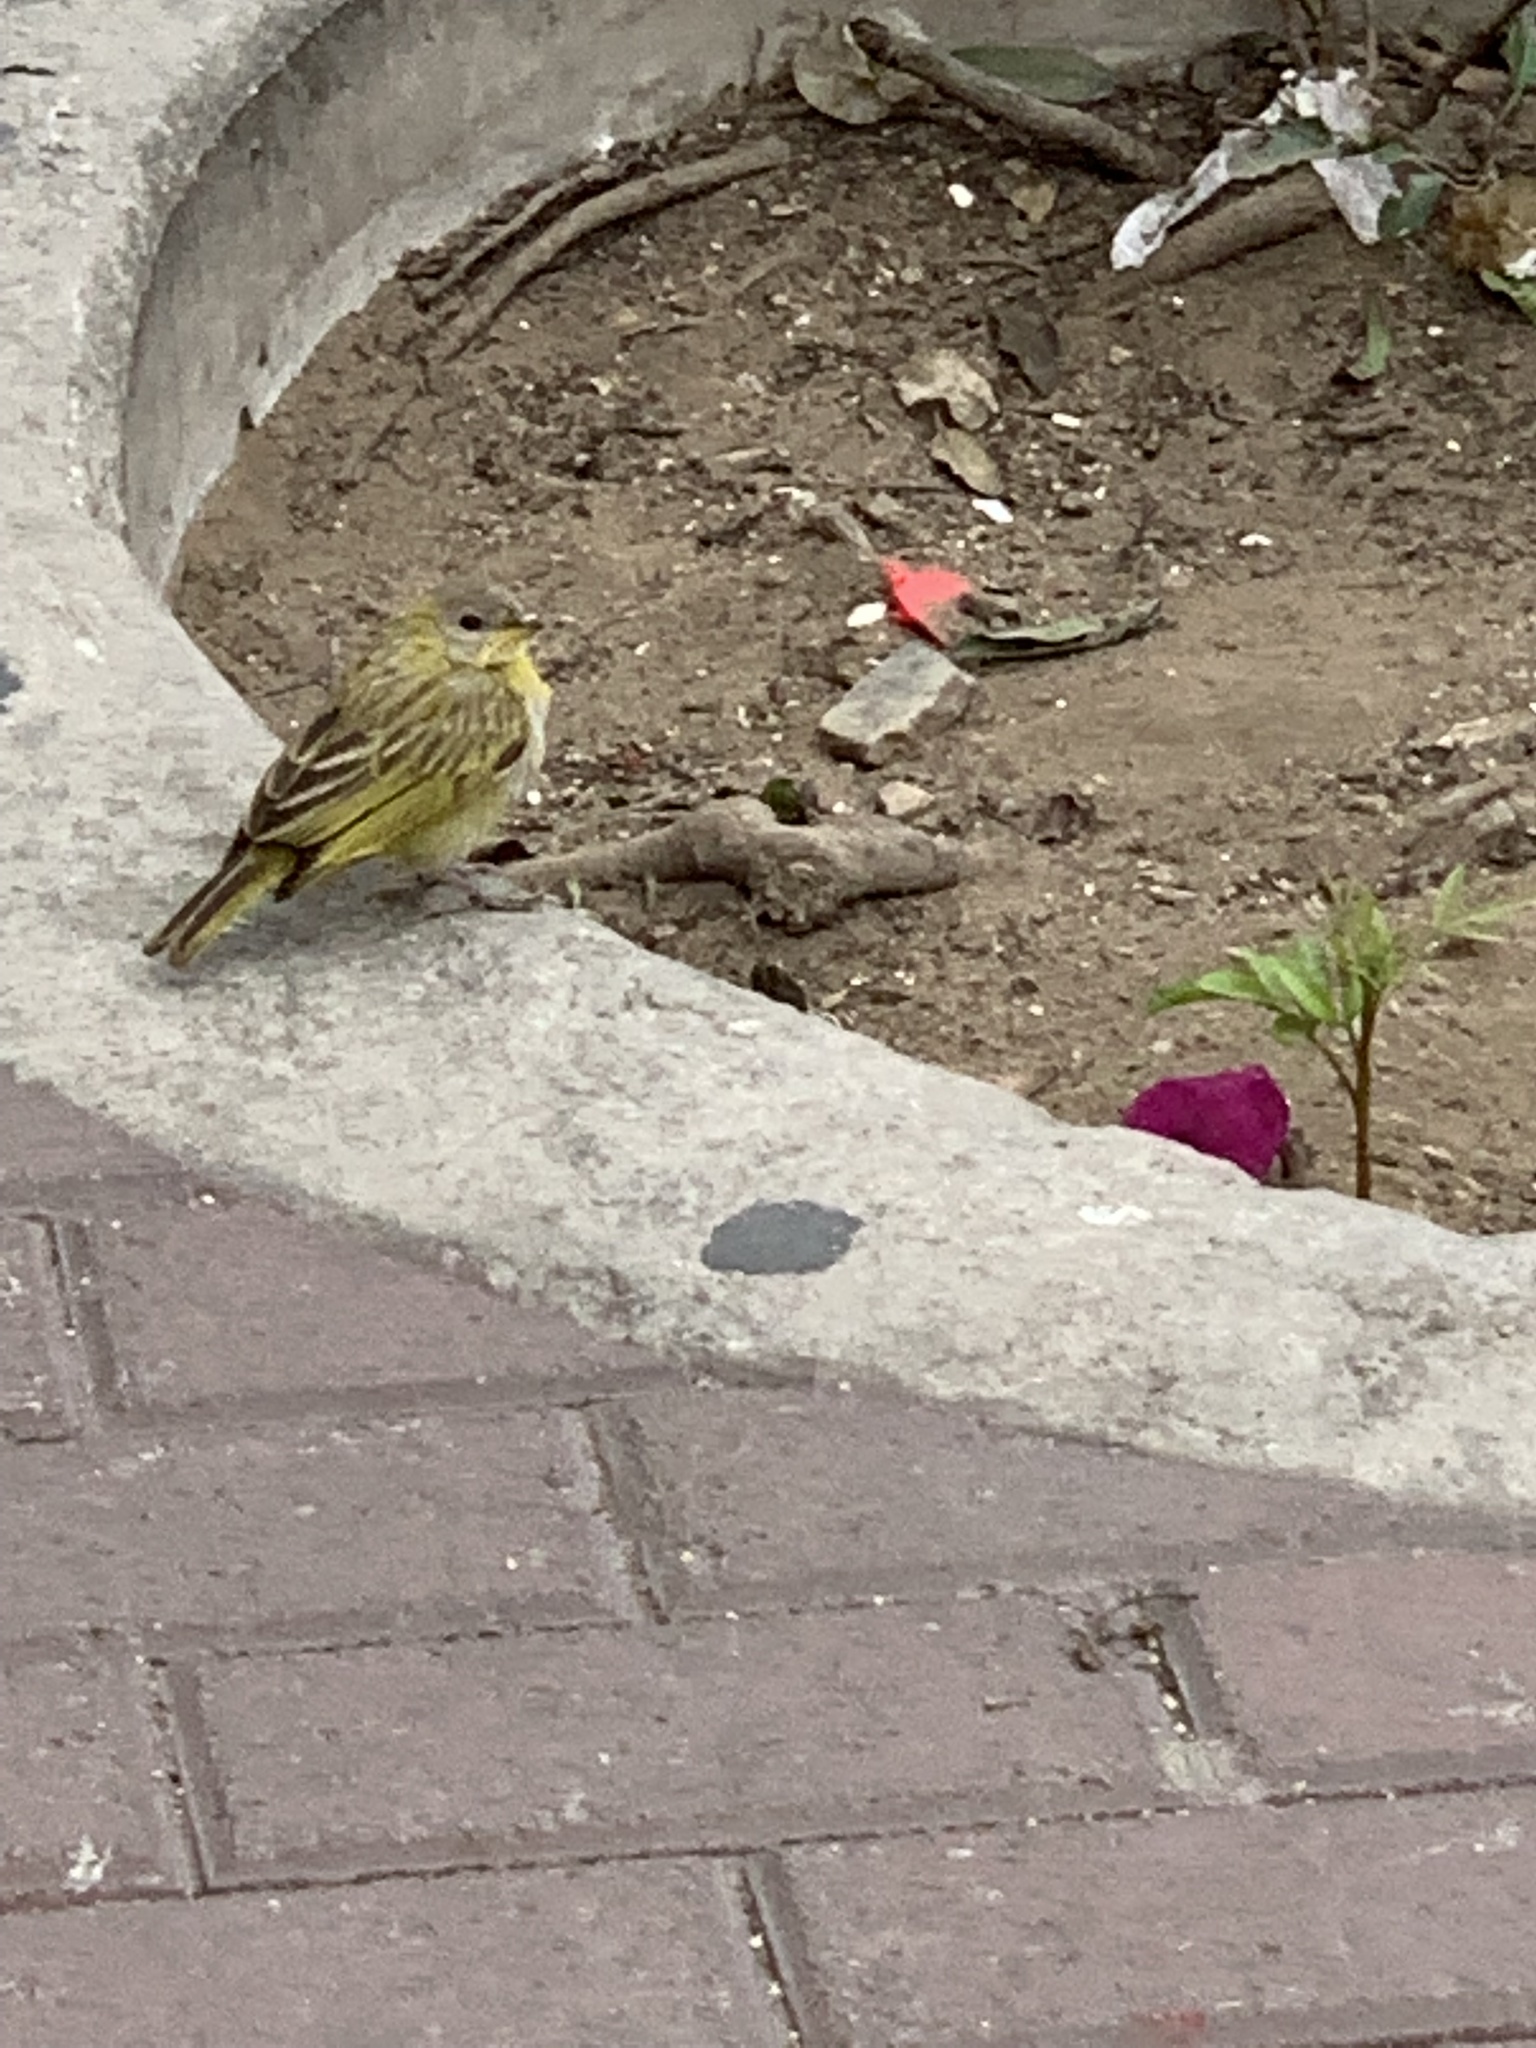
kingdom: Animalia
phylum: Chordata
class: Aves
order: Passeriformes
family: Thraupidae
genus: Sicalis
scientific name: Sicalis flaveola
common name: Saffron finch
